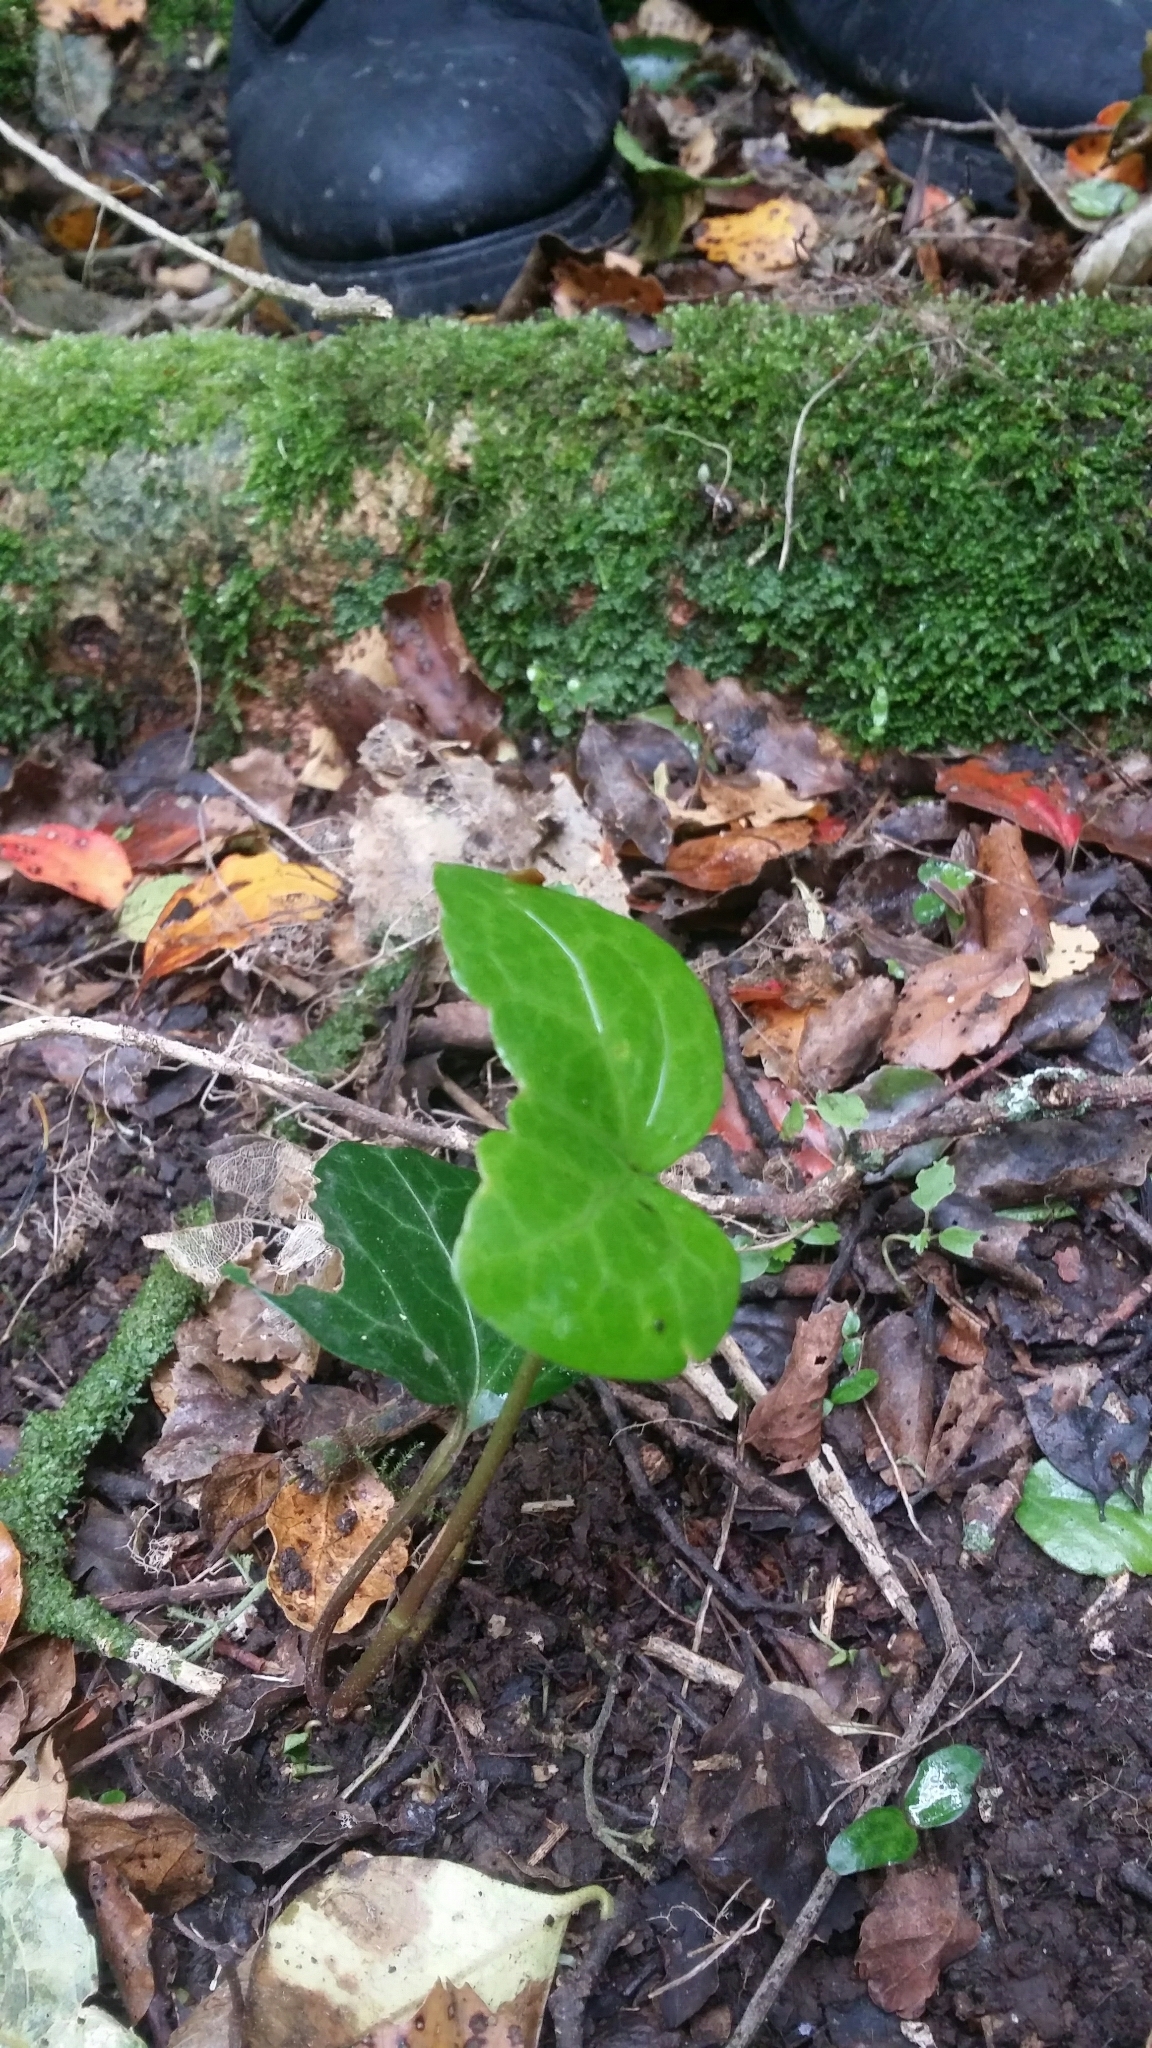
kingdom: Plantae
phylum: Tracheophyta
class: Magnoliopsida
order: Apiales
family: Araliaceae
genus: Hedera
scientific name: Hedera helix
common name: Ivy
